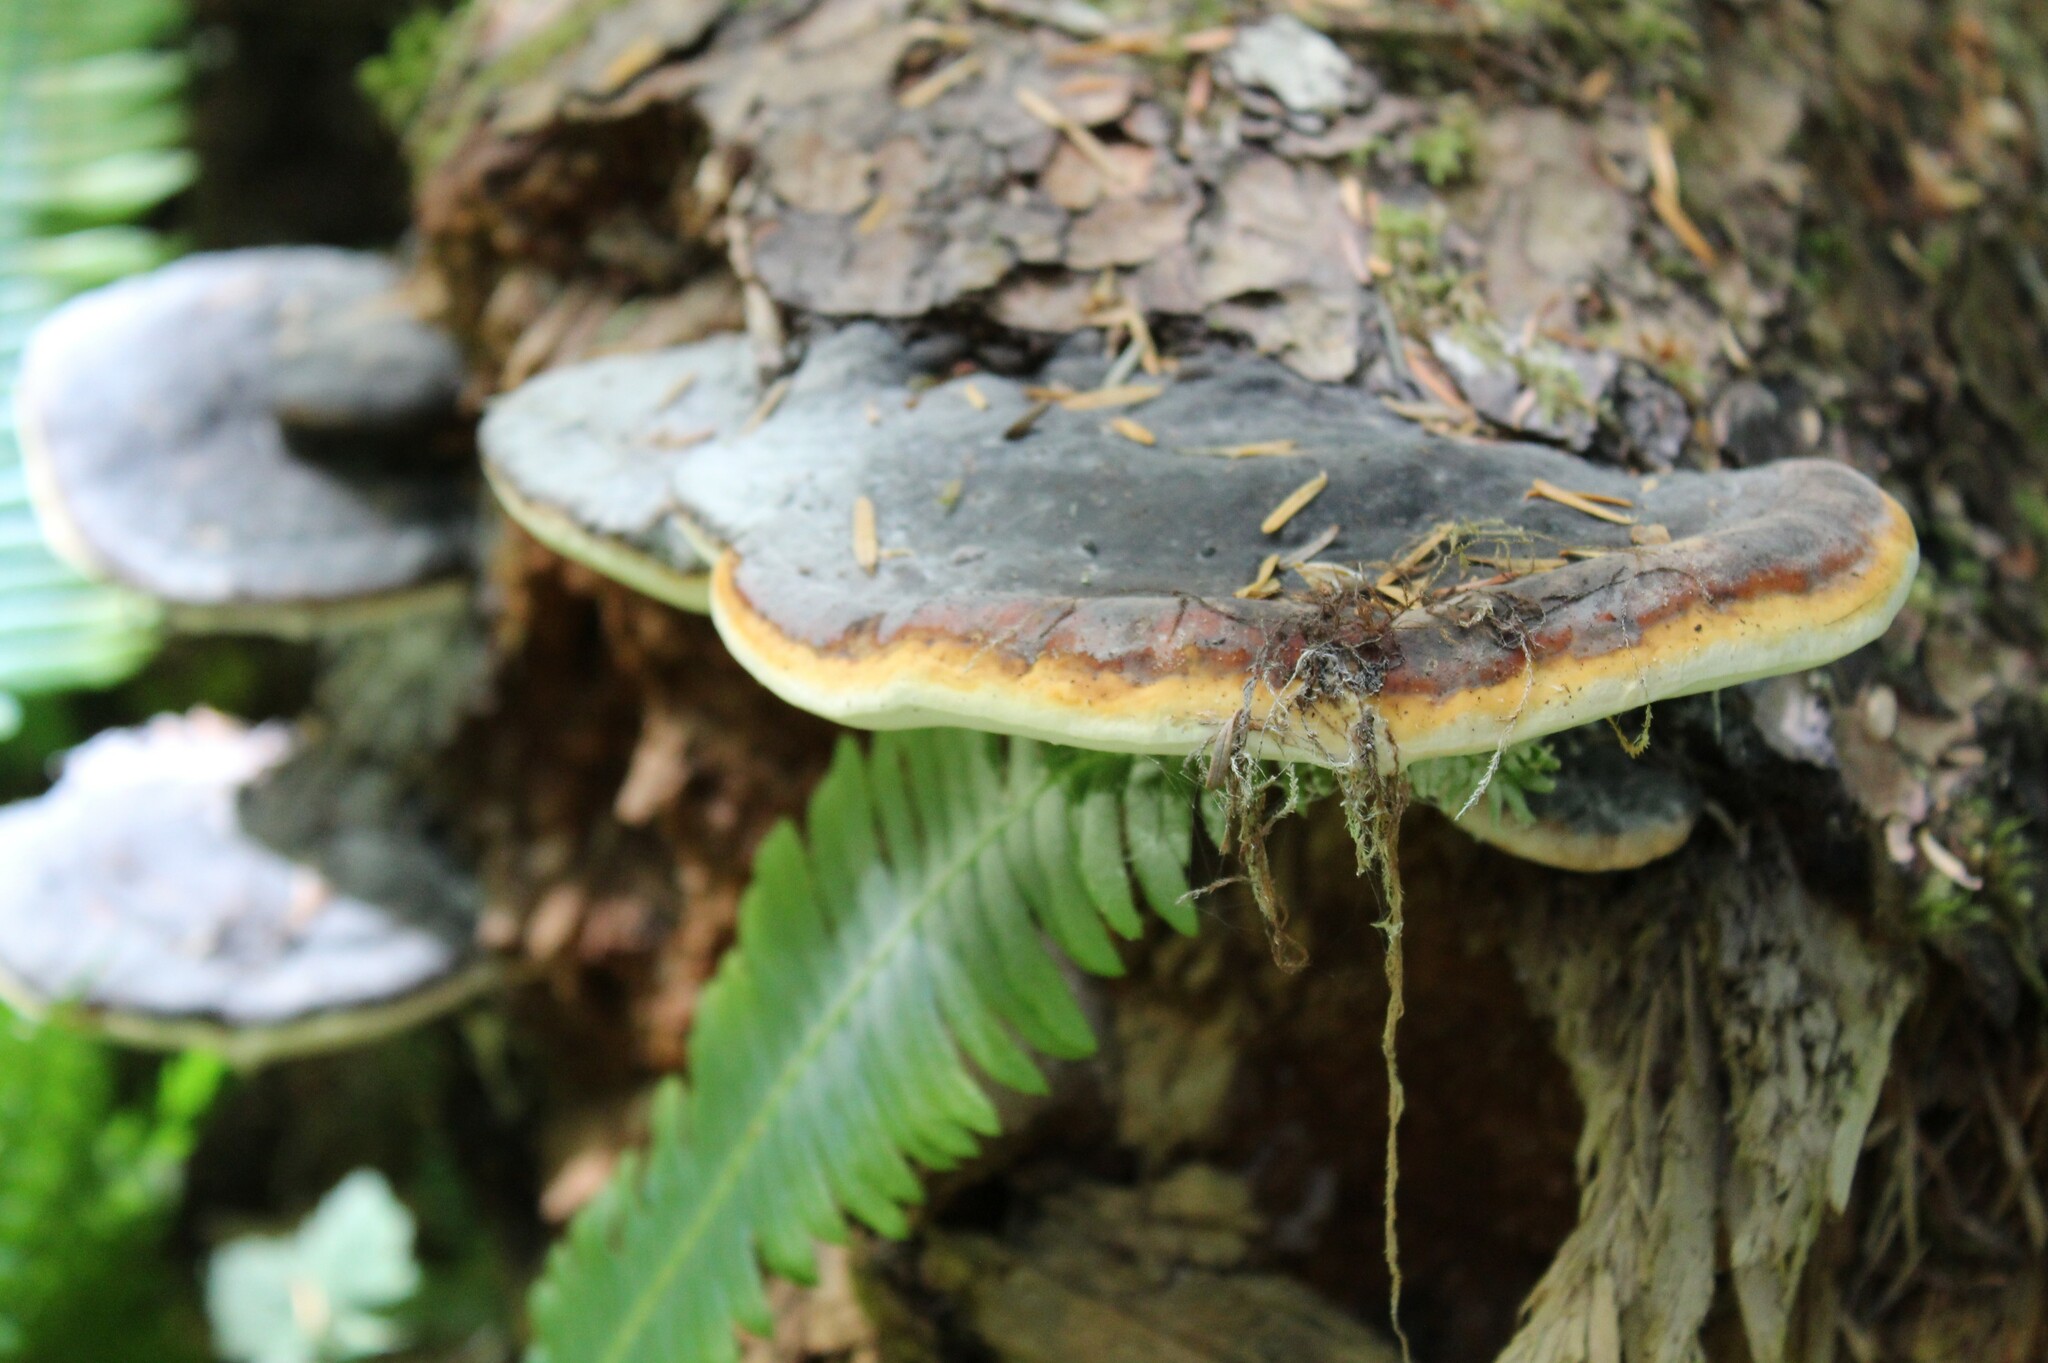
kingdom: Fungi
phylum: Basidiomycota
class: Agaricomycetes
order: Polyporales
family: Fomitopsidaceae
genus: Fomitopsis
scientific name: Fomitopsis mounceae
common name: Northern red belt
